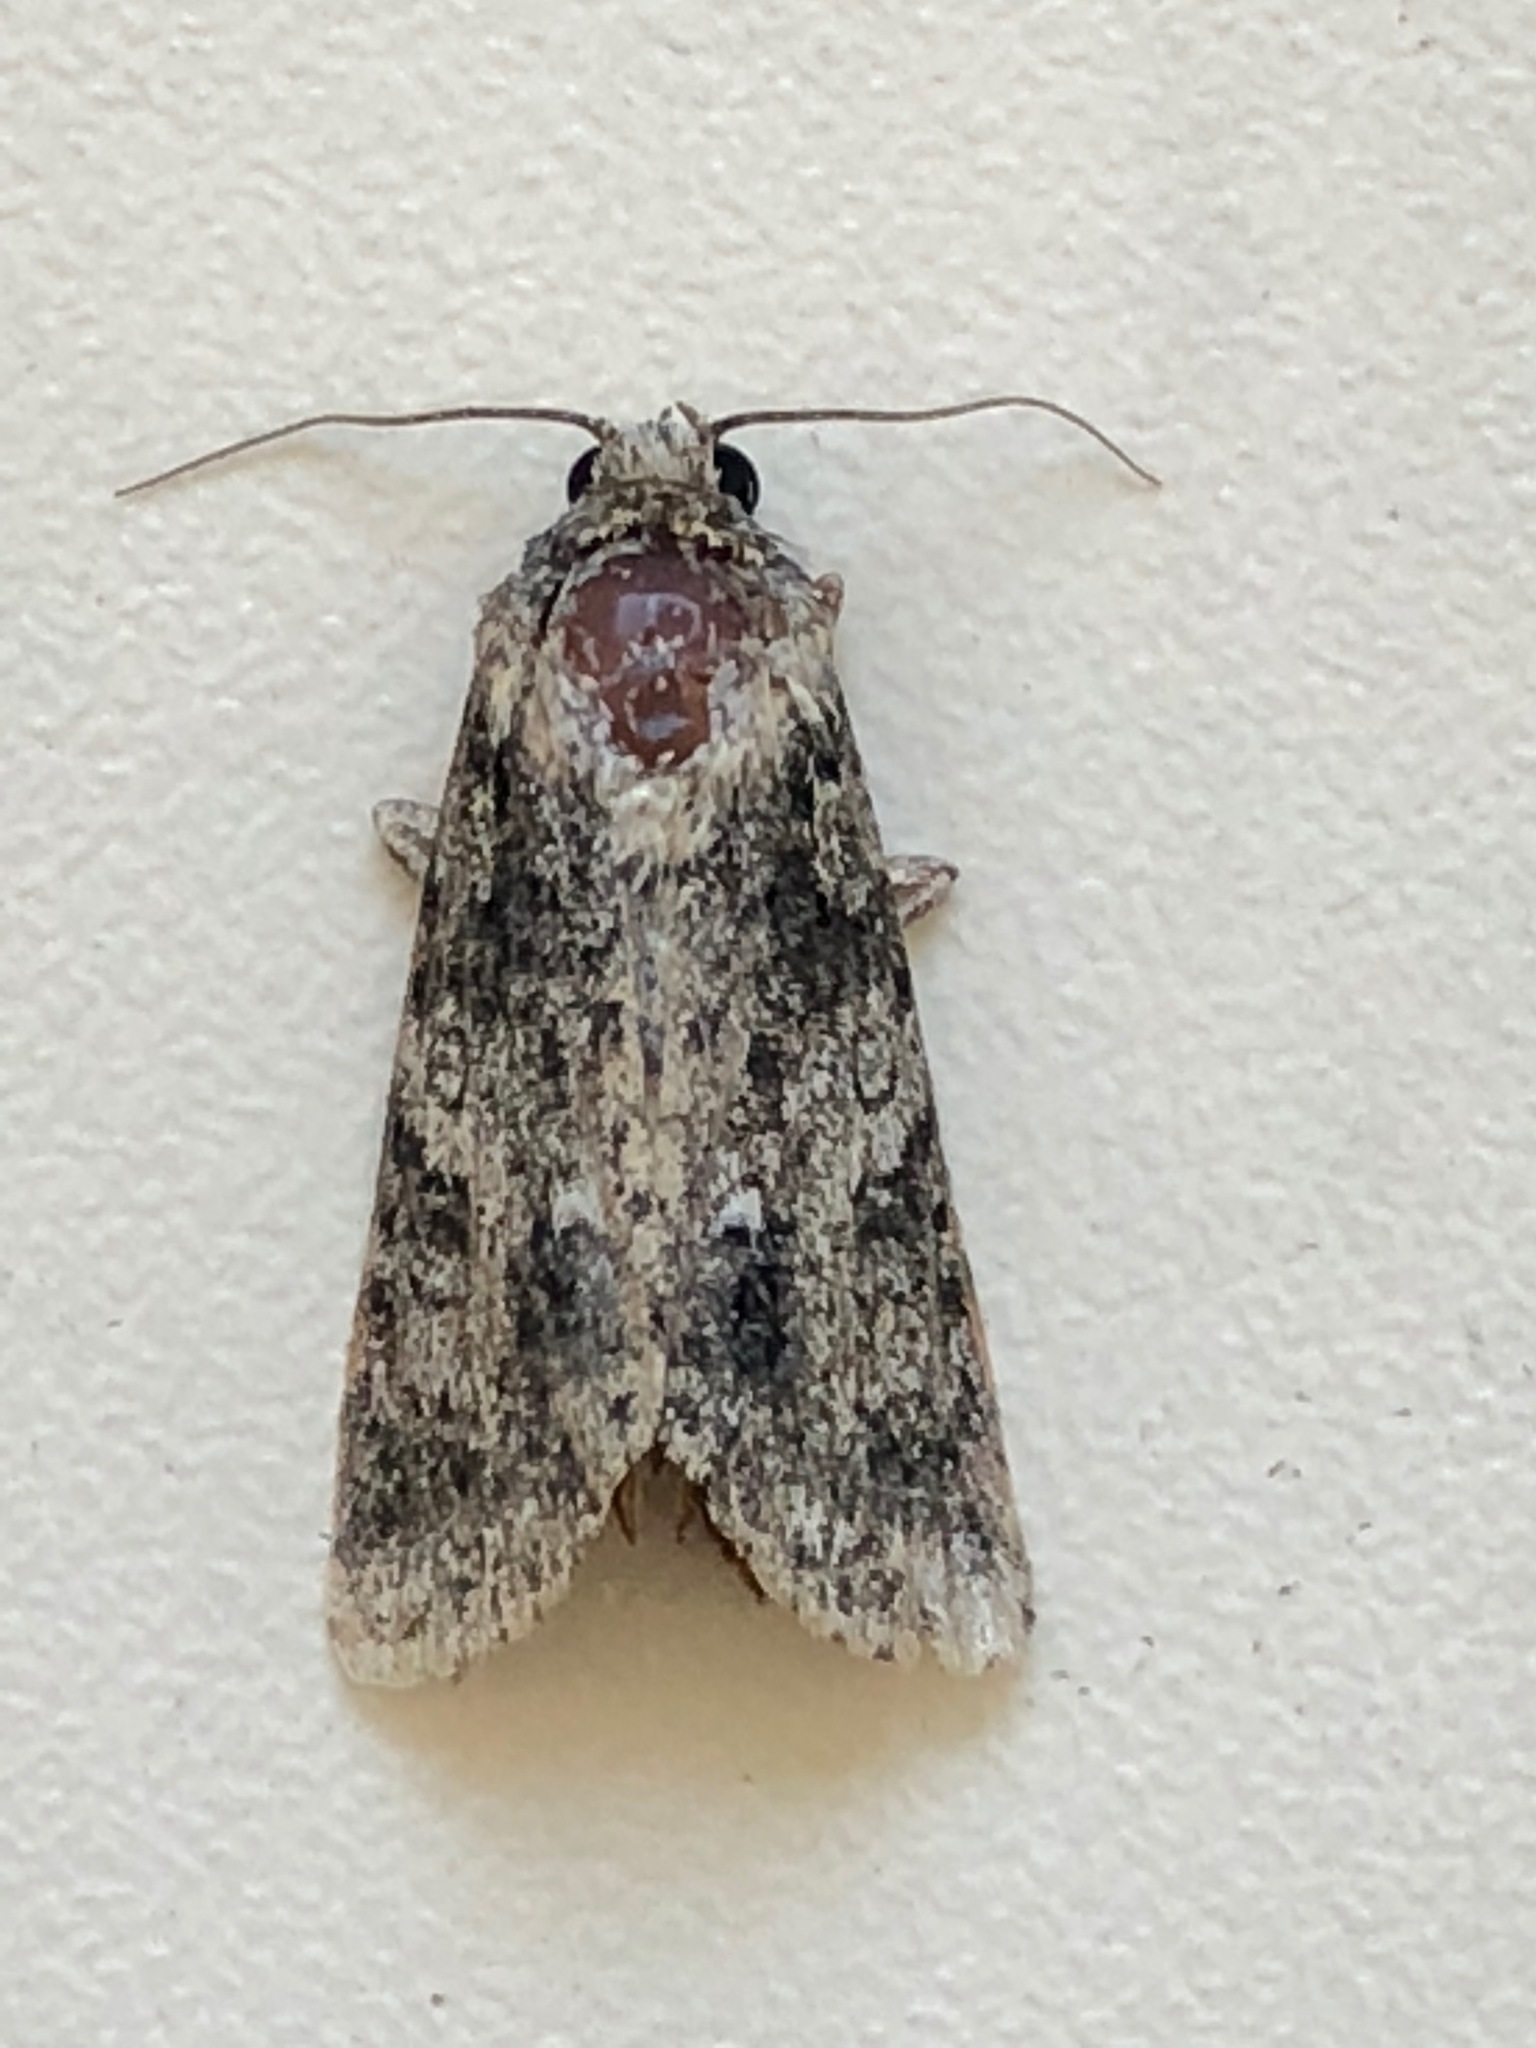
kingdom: Animalia
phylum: Arthropoda
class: Insecta
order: Lepidoptera
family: Noctuidae
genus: Acronicta
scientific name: Acronicta rumicis
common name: Knot grass
